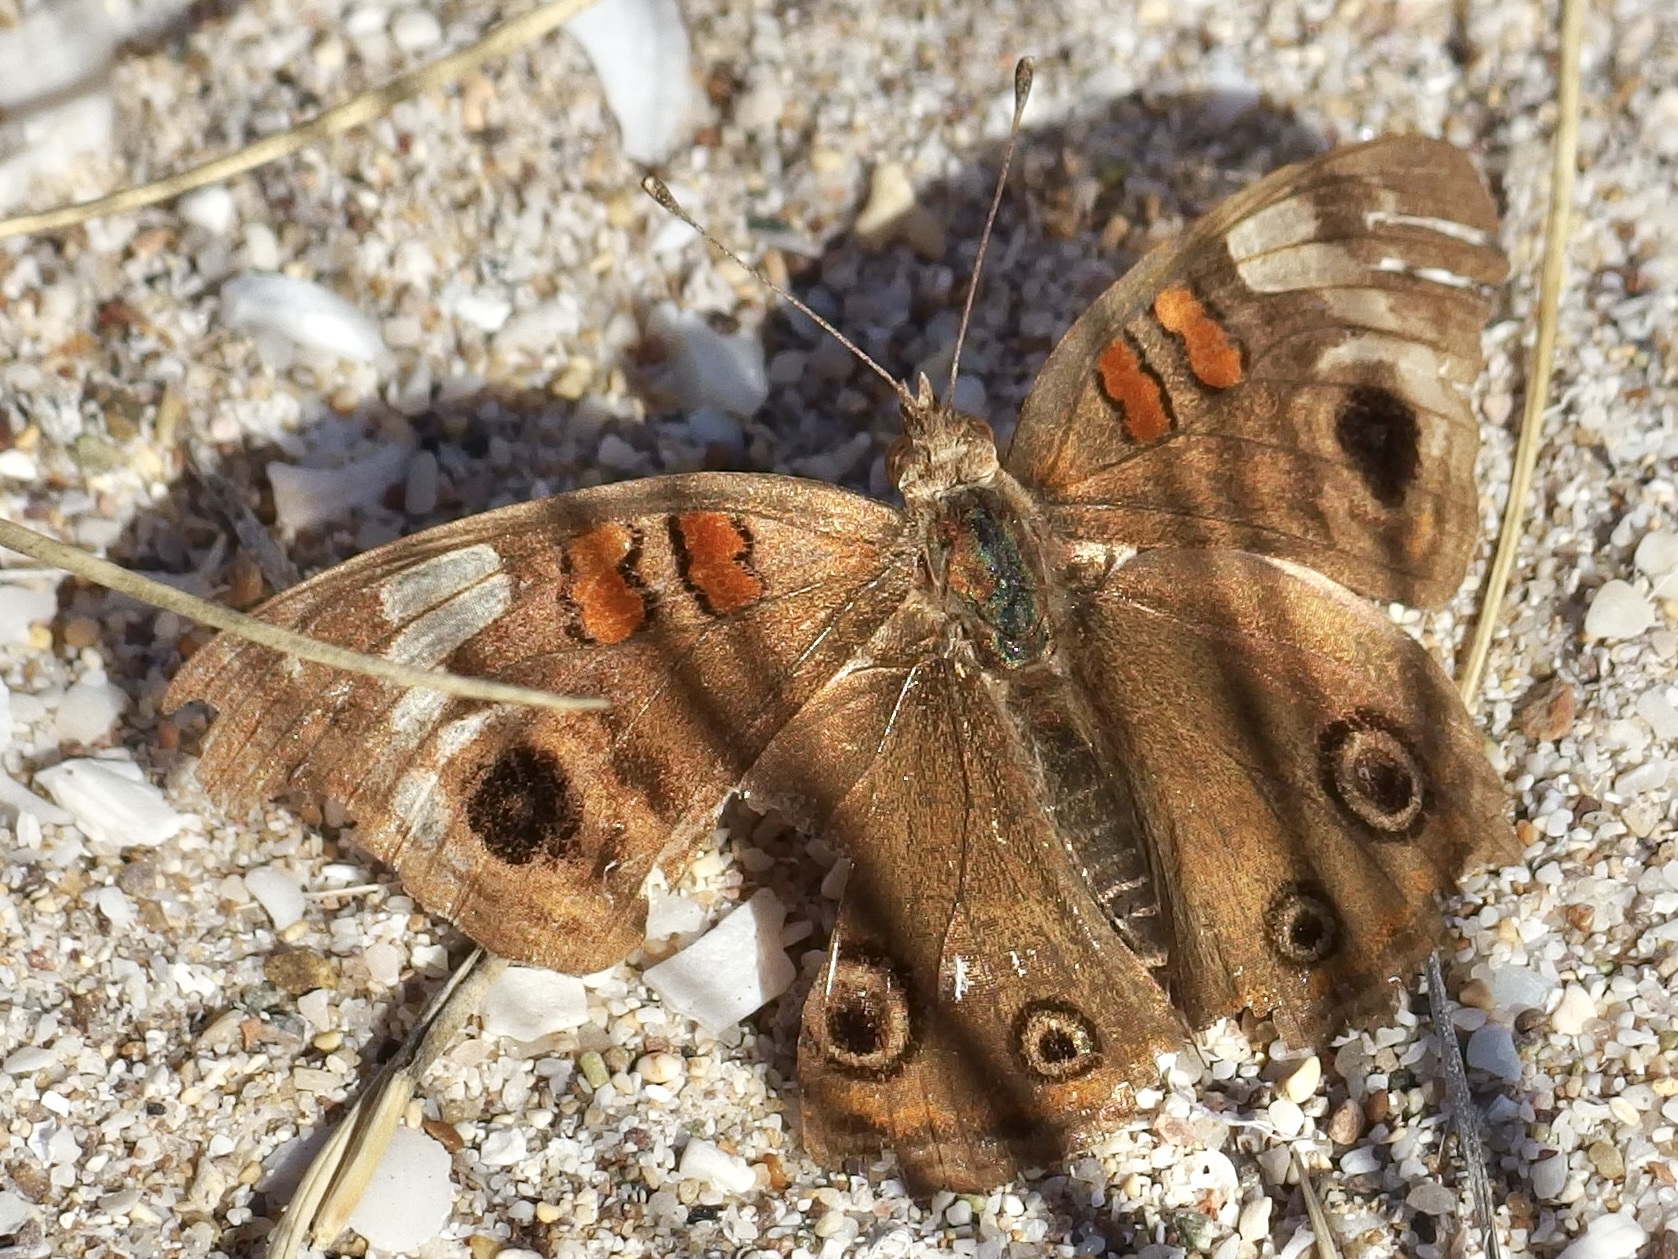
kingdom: Animalia
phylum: Arthropoda
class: Insecta
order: Lepidoptera
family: Nymphalidae
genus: Junonia
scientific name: Junonia pacoma
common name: Pacific mangrove buckeye
